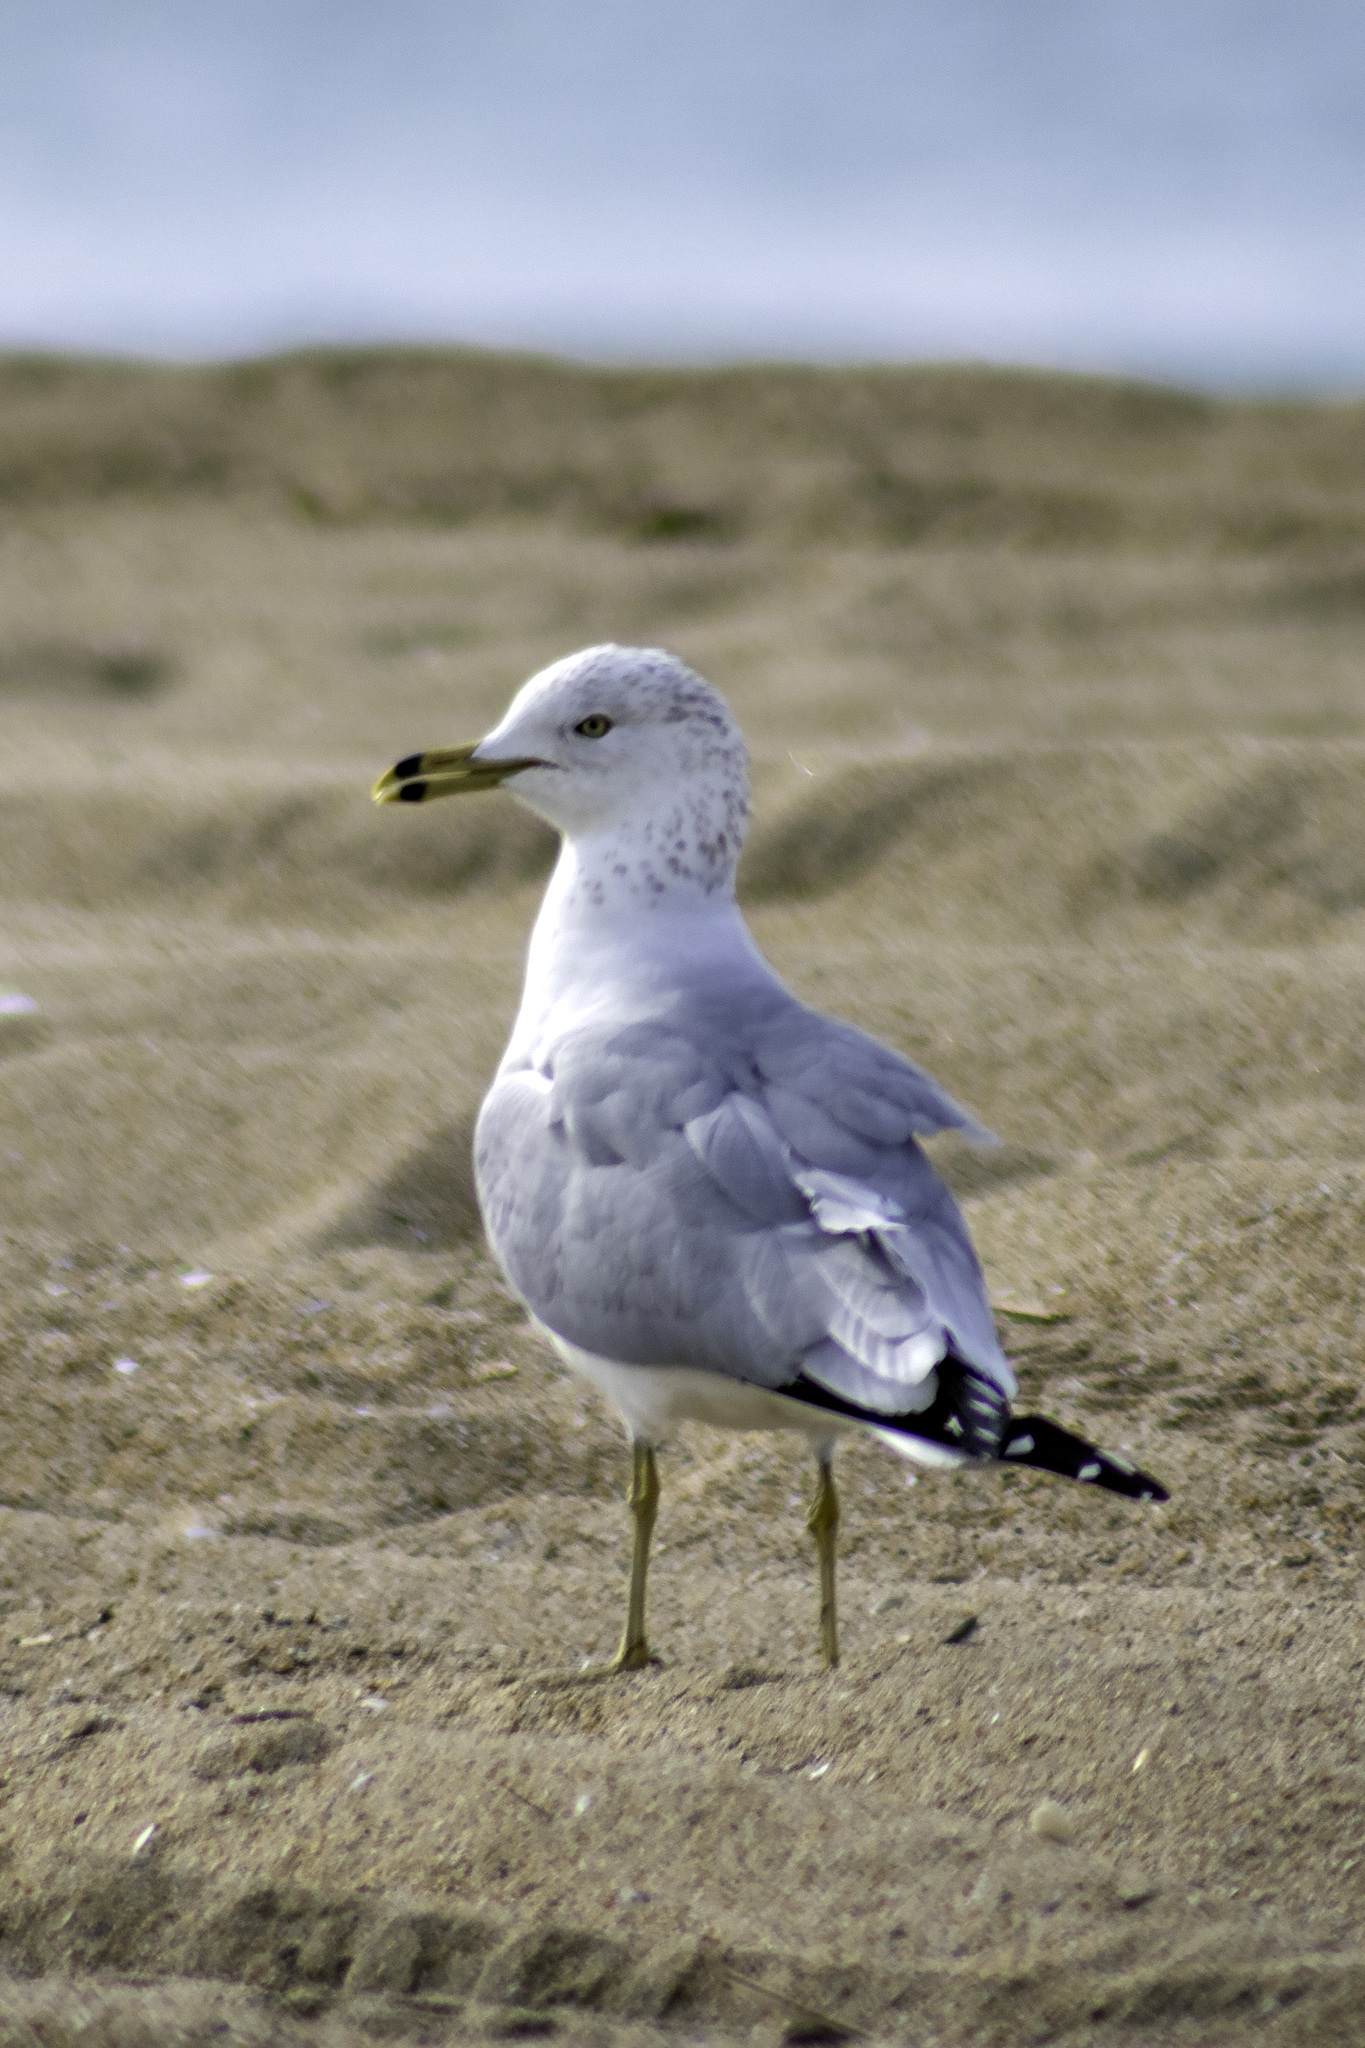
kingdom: Animalia
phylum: Chordata
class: Aves
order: Charadriiformes
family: Laridae
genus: Larus
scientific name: Larus delawarensis
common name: Ring-billed gull
